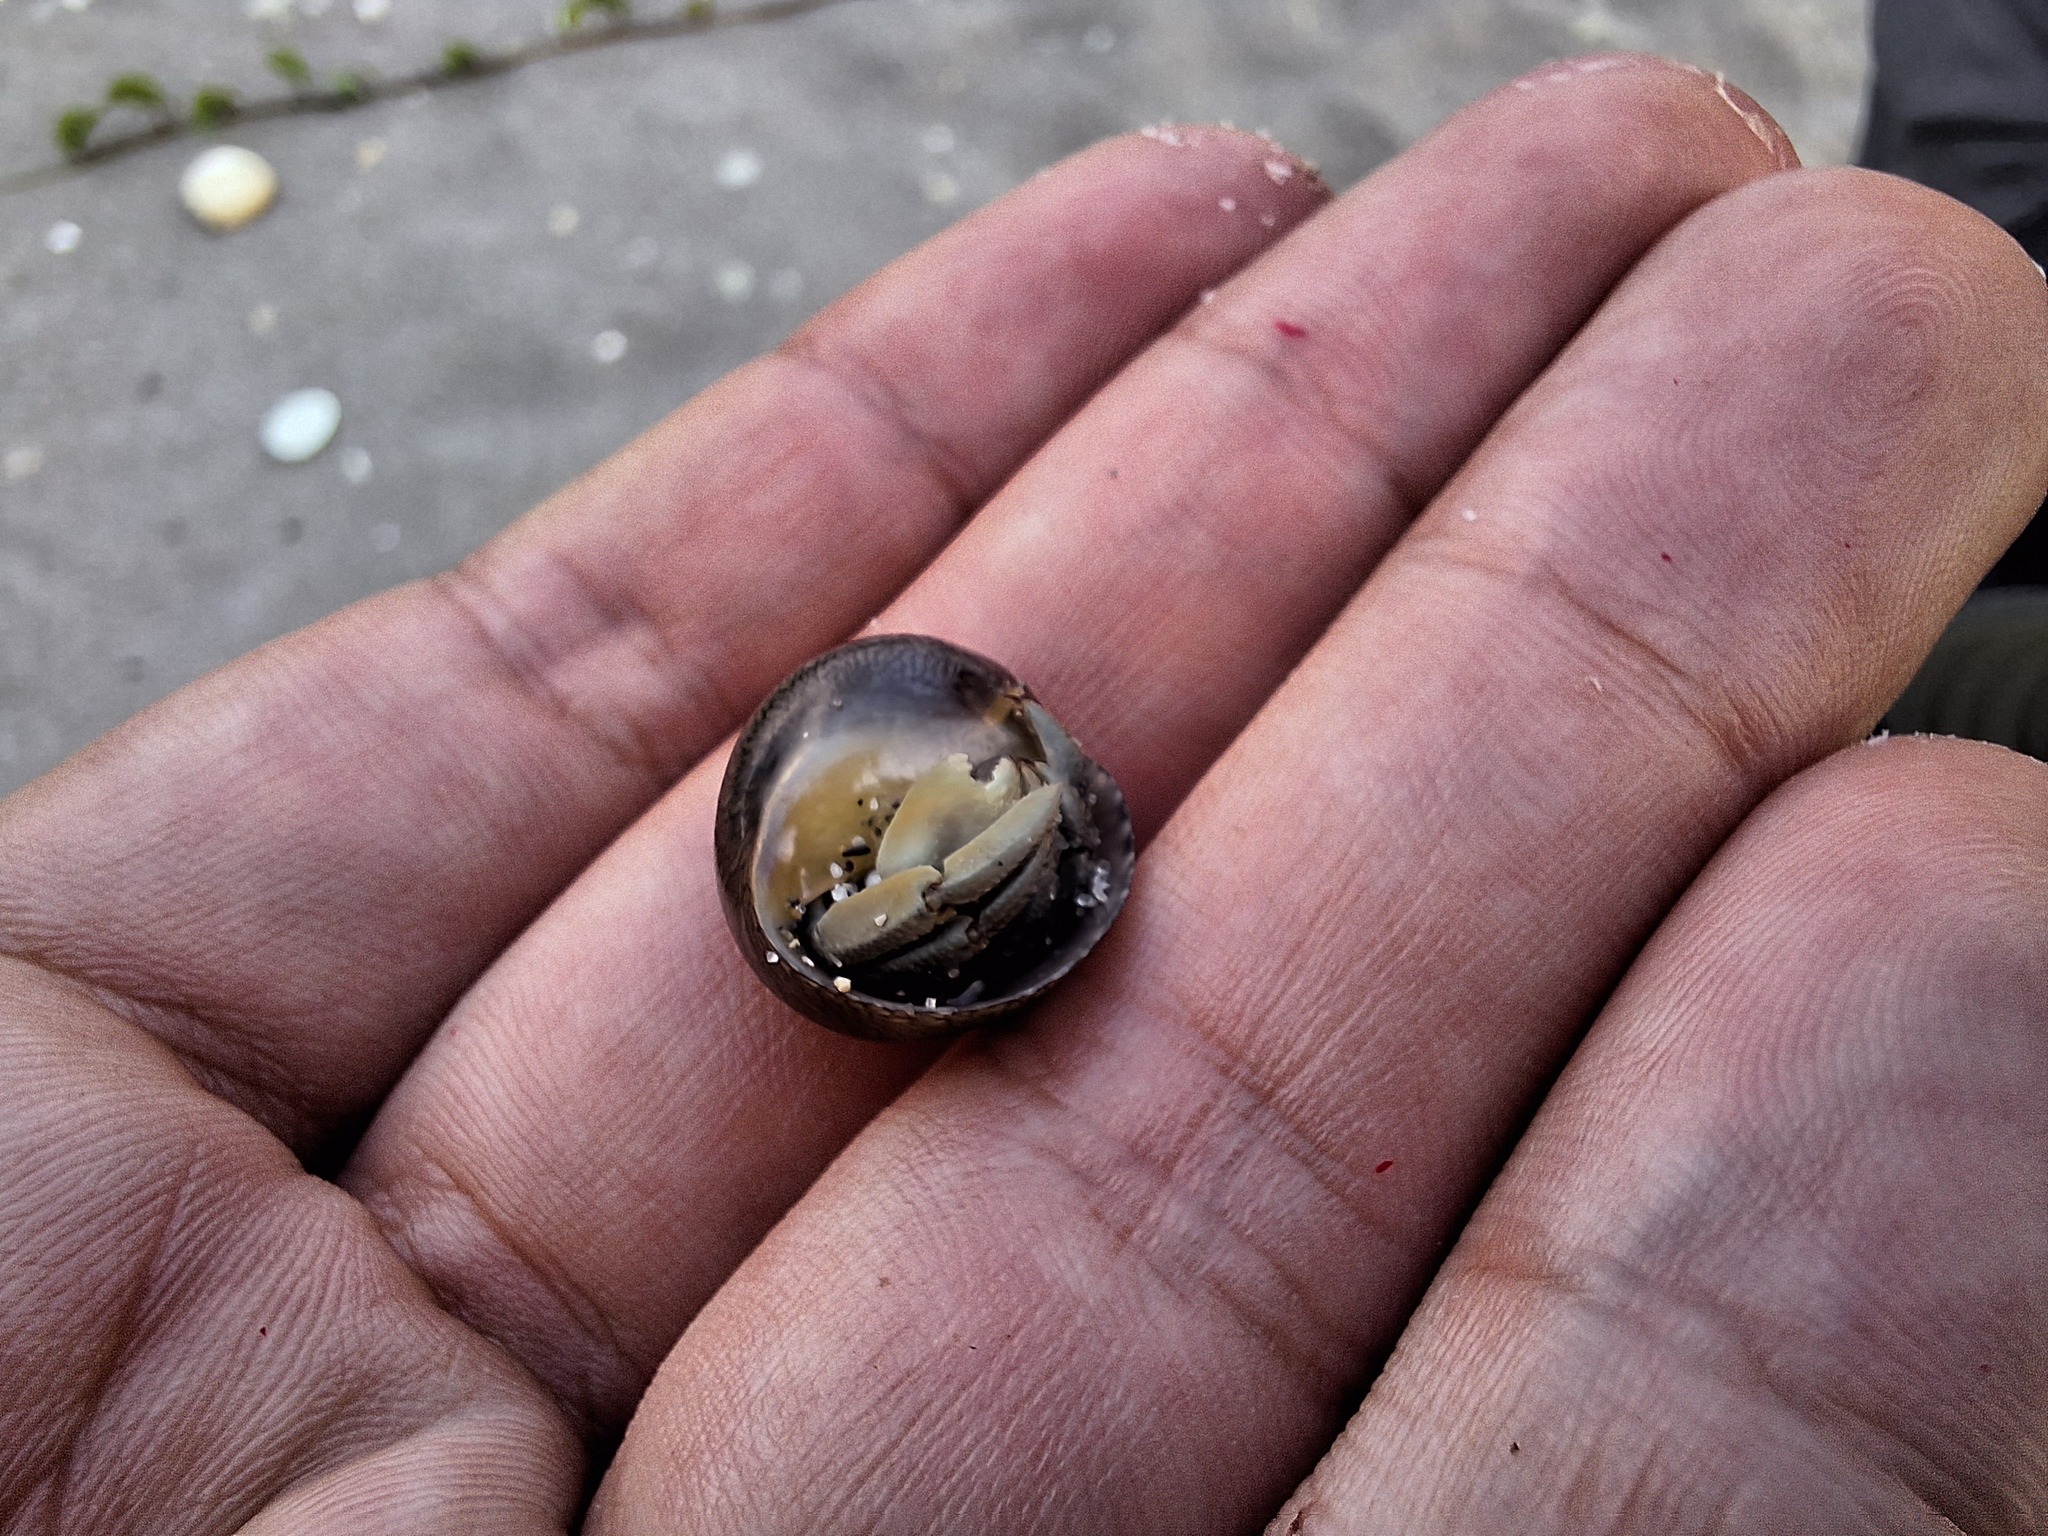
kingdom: Animalia
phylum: Arthropoda
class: Malacostraca
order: Decapoda
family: Coenobitidae
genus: Coenobita
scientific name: Coenobita compressus
